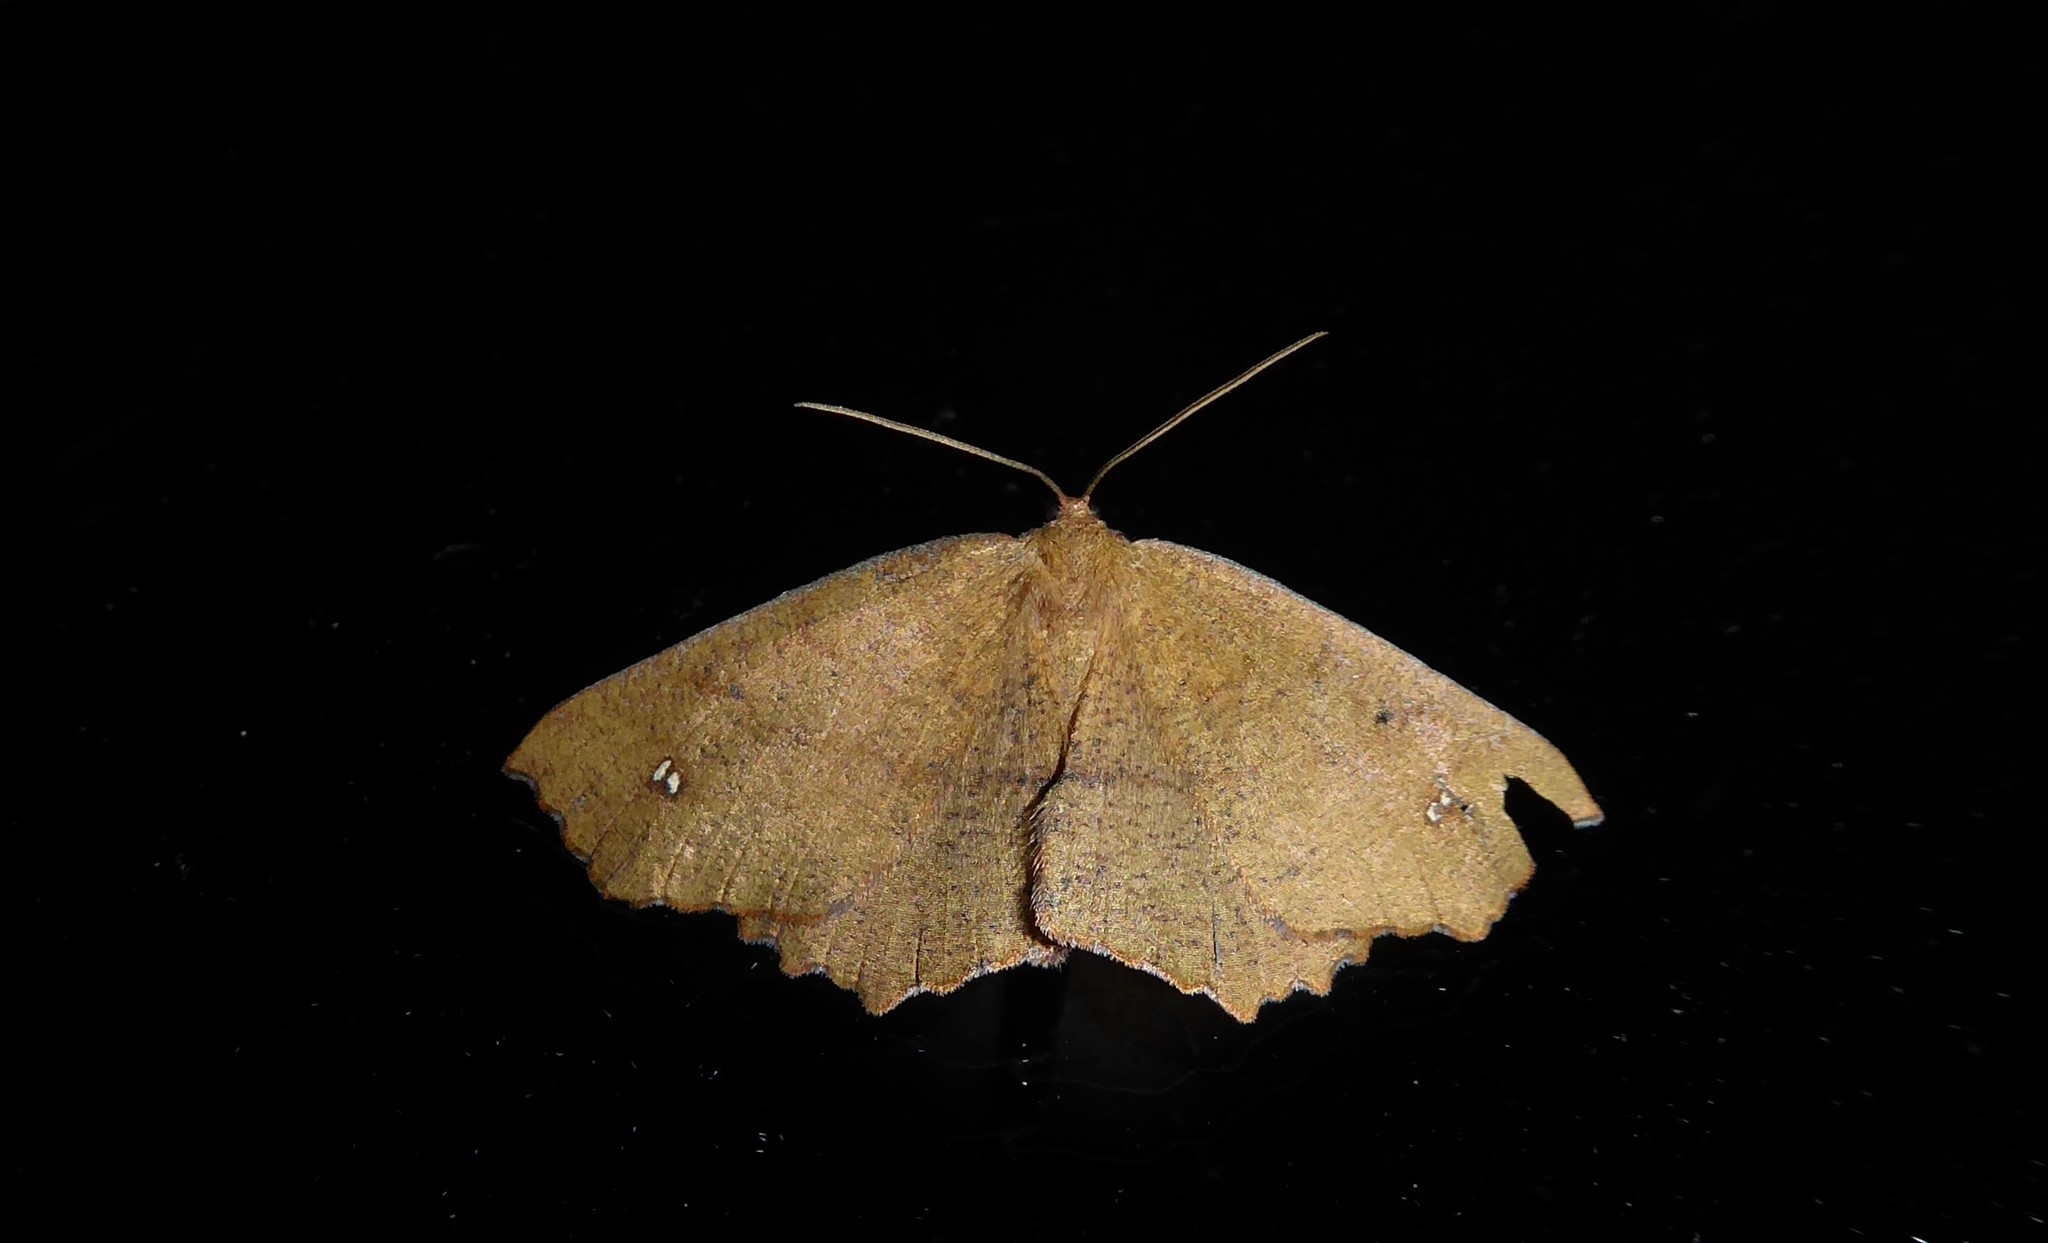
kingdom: Animalia
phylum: Arthropoda
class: Insecta
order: Lepidoptera
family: Geometridae
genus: Xyridacma
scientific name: Xyridacma ustaria
